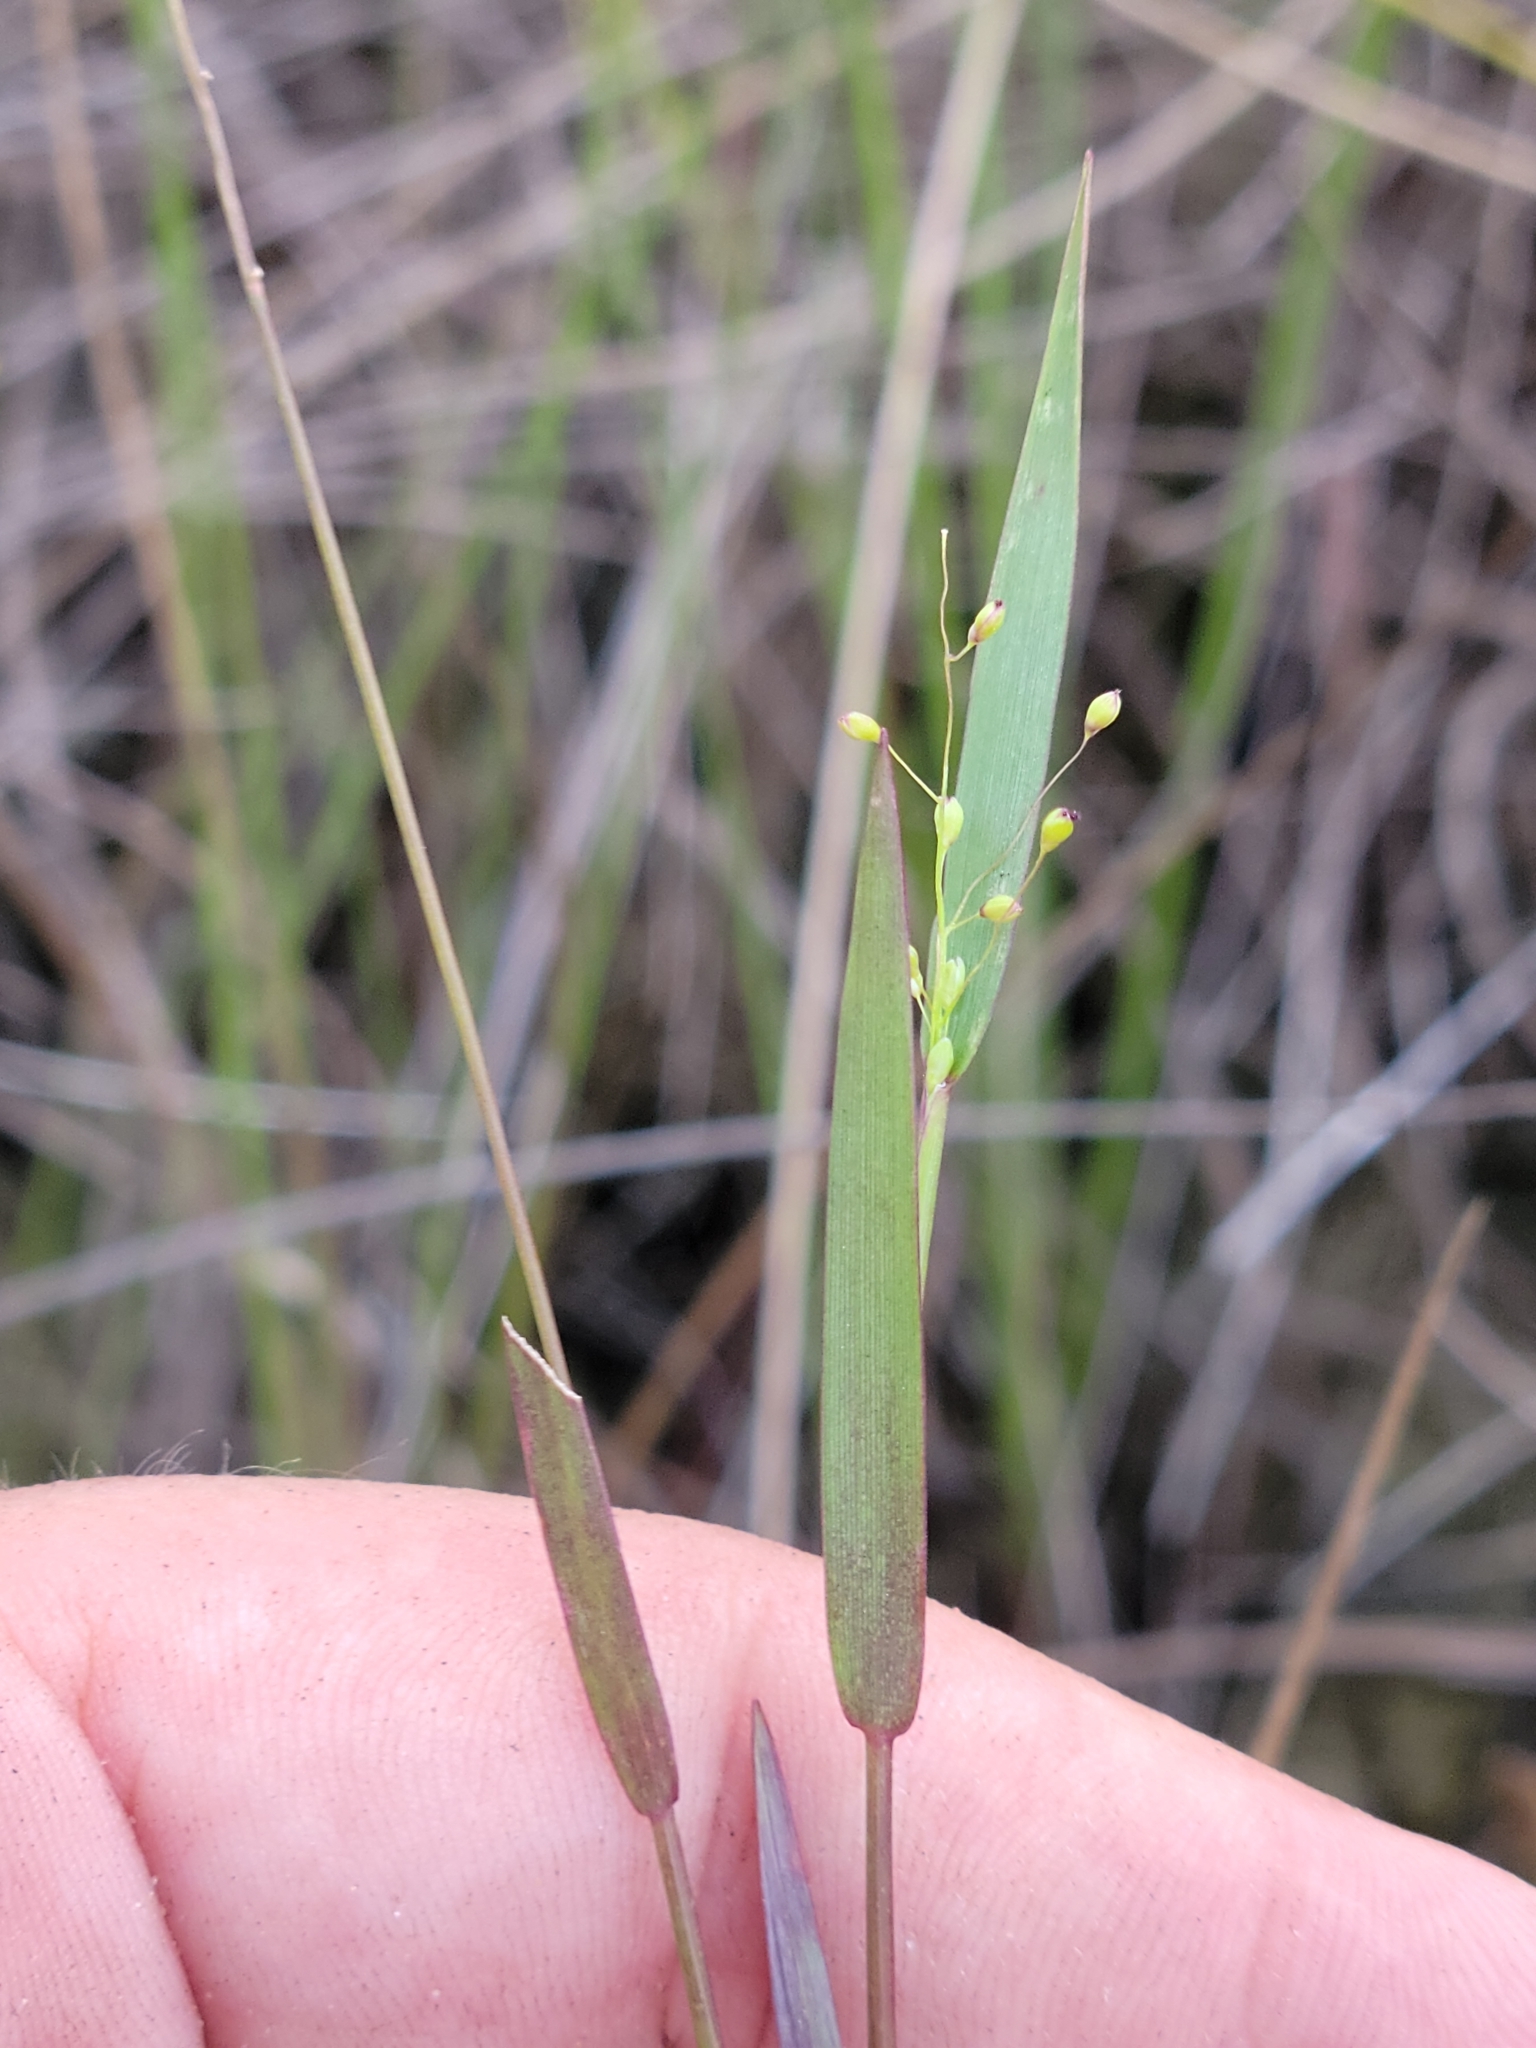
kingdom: Plantae
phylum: Tracheophyta
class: Liliopsida
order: Poales
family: Poaceae
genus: Dichanthelium
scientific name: Dichanthelium caerulescens
